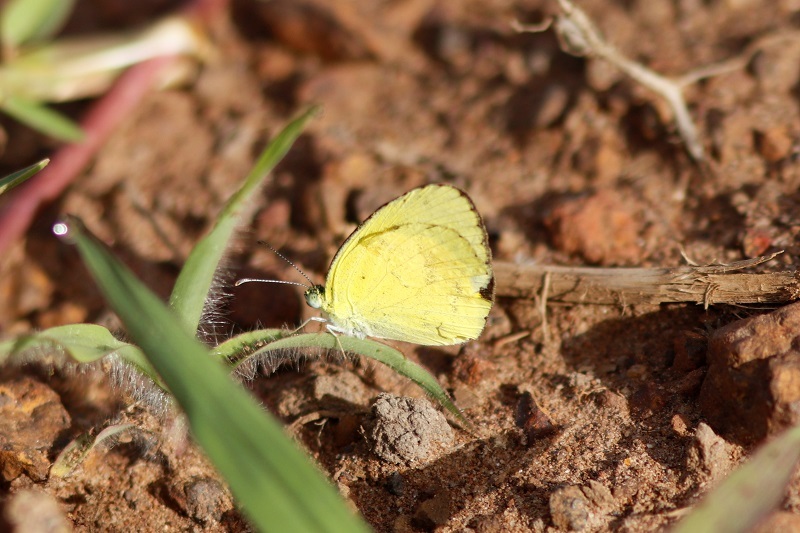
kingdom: Animalia
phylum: Arthropoda
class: Insecta
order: Lepidoptera
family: Pieridae
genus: Eurema
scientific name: Eurema brigitta
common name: Small grass yellow
